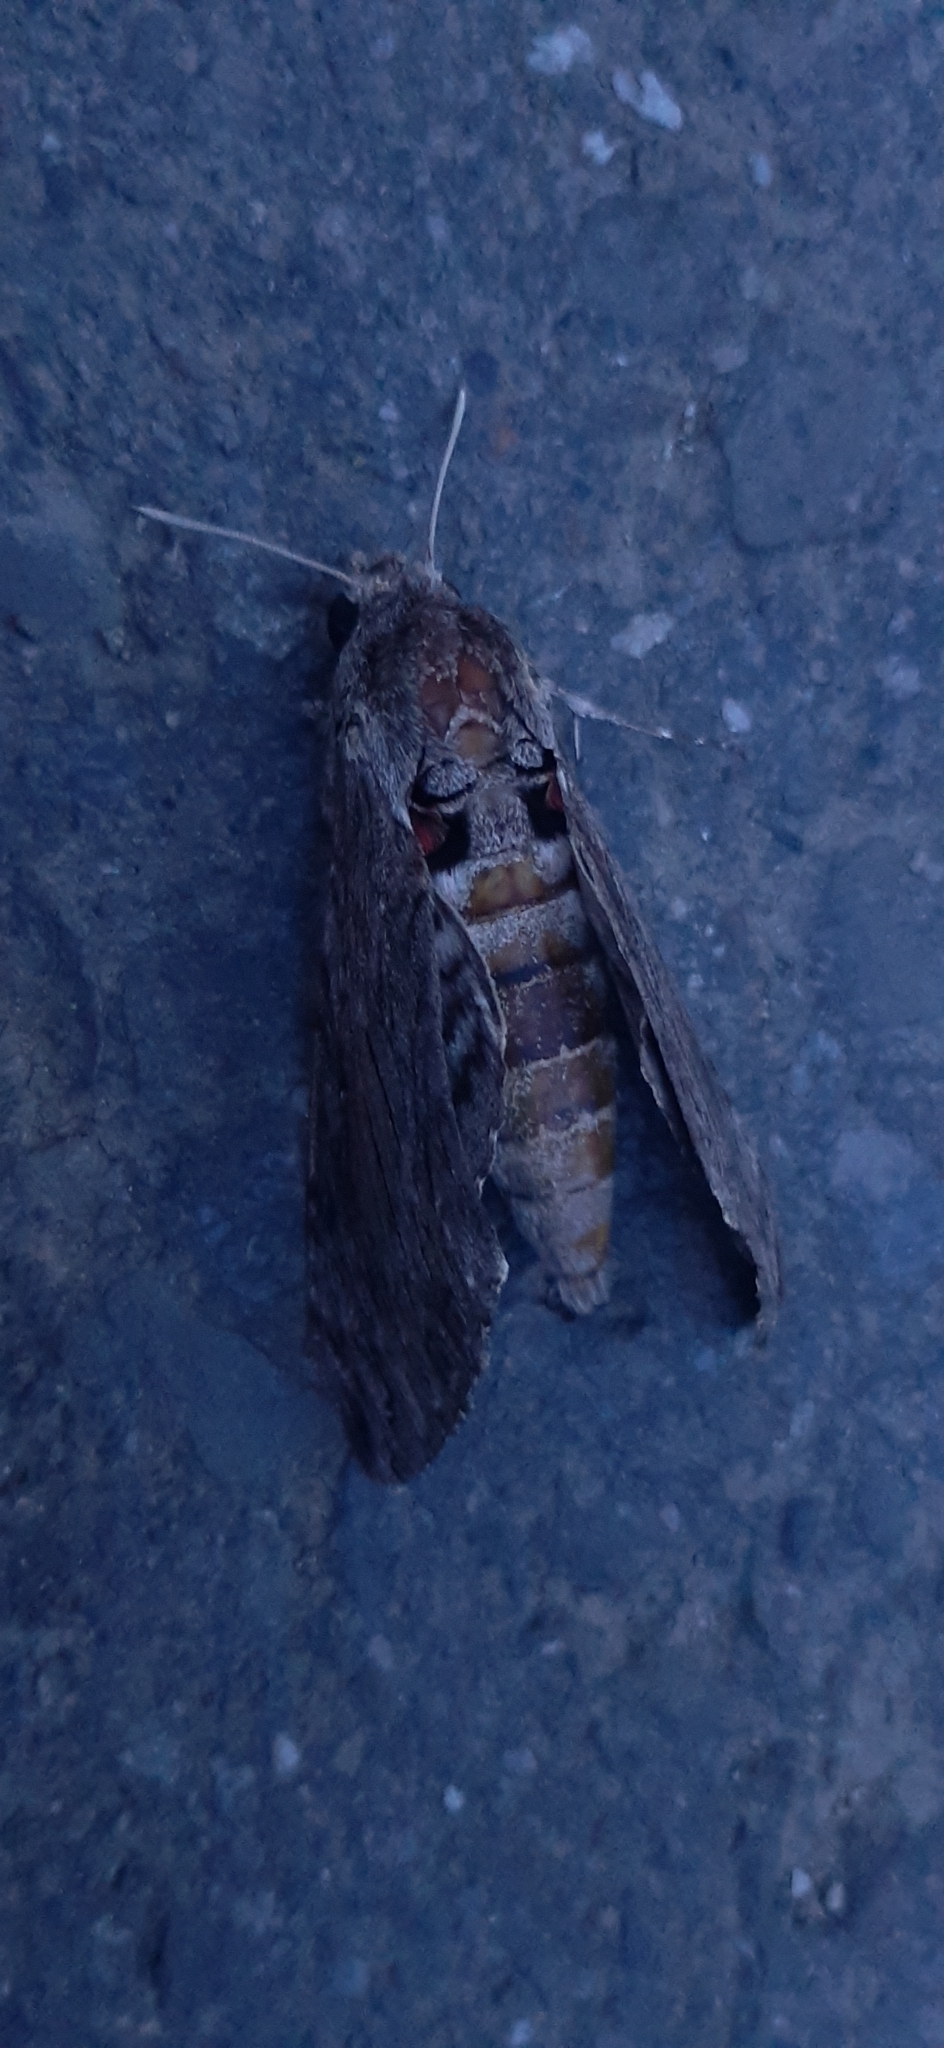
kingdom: Animalia
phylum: Arthropoda
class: Insecta
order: Lepidoptera
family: Sphingidae
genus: Agrius
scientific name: Agrius convolvuli
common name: Convolvulus hawkmoth
